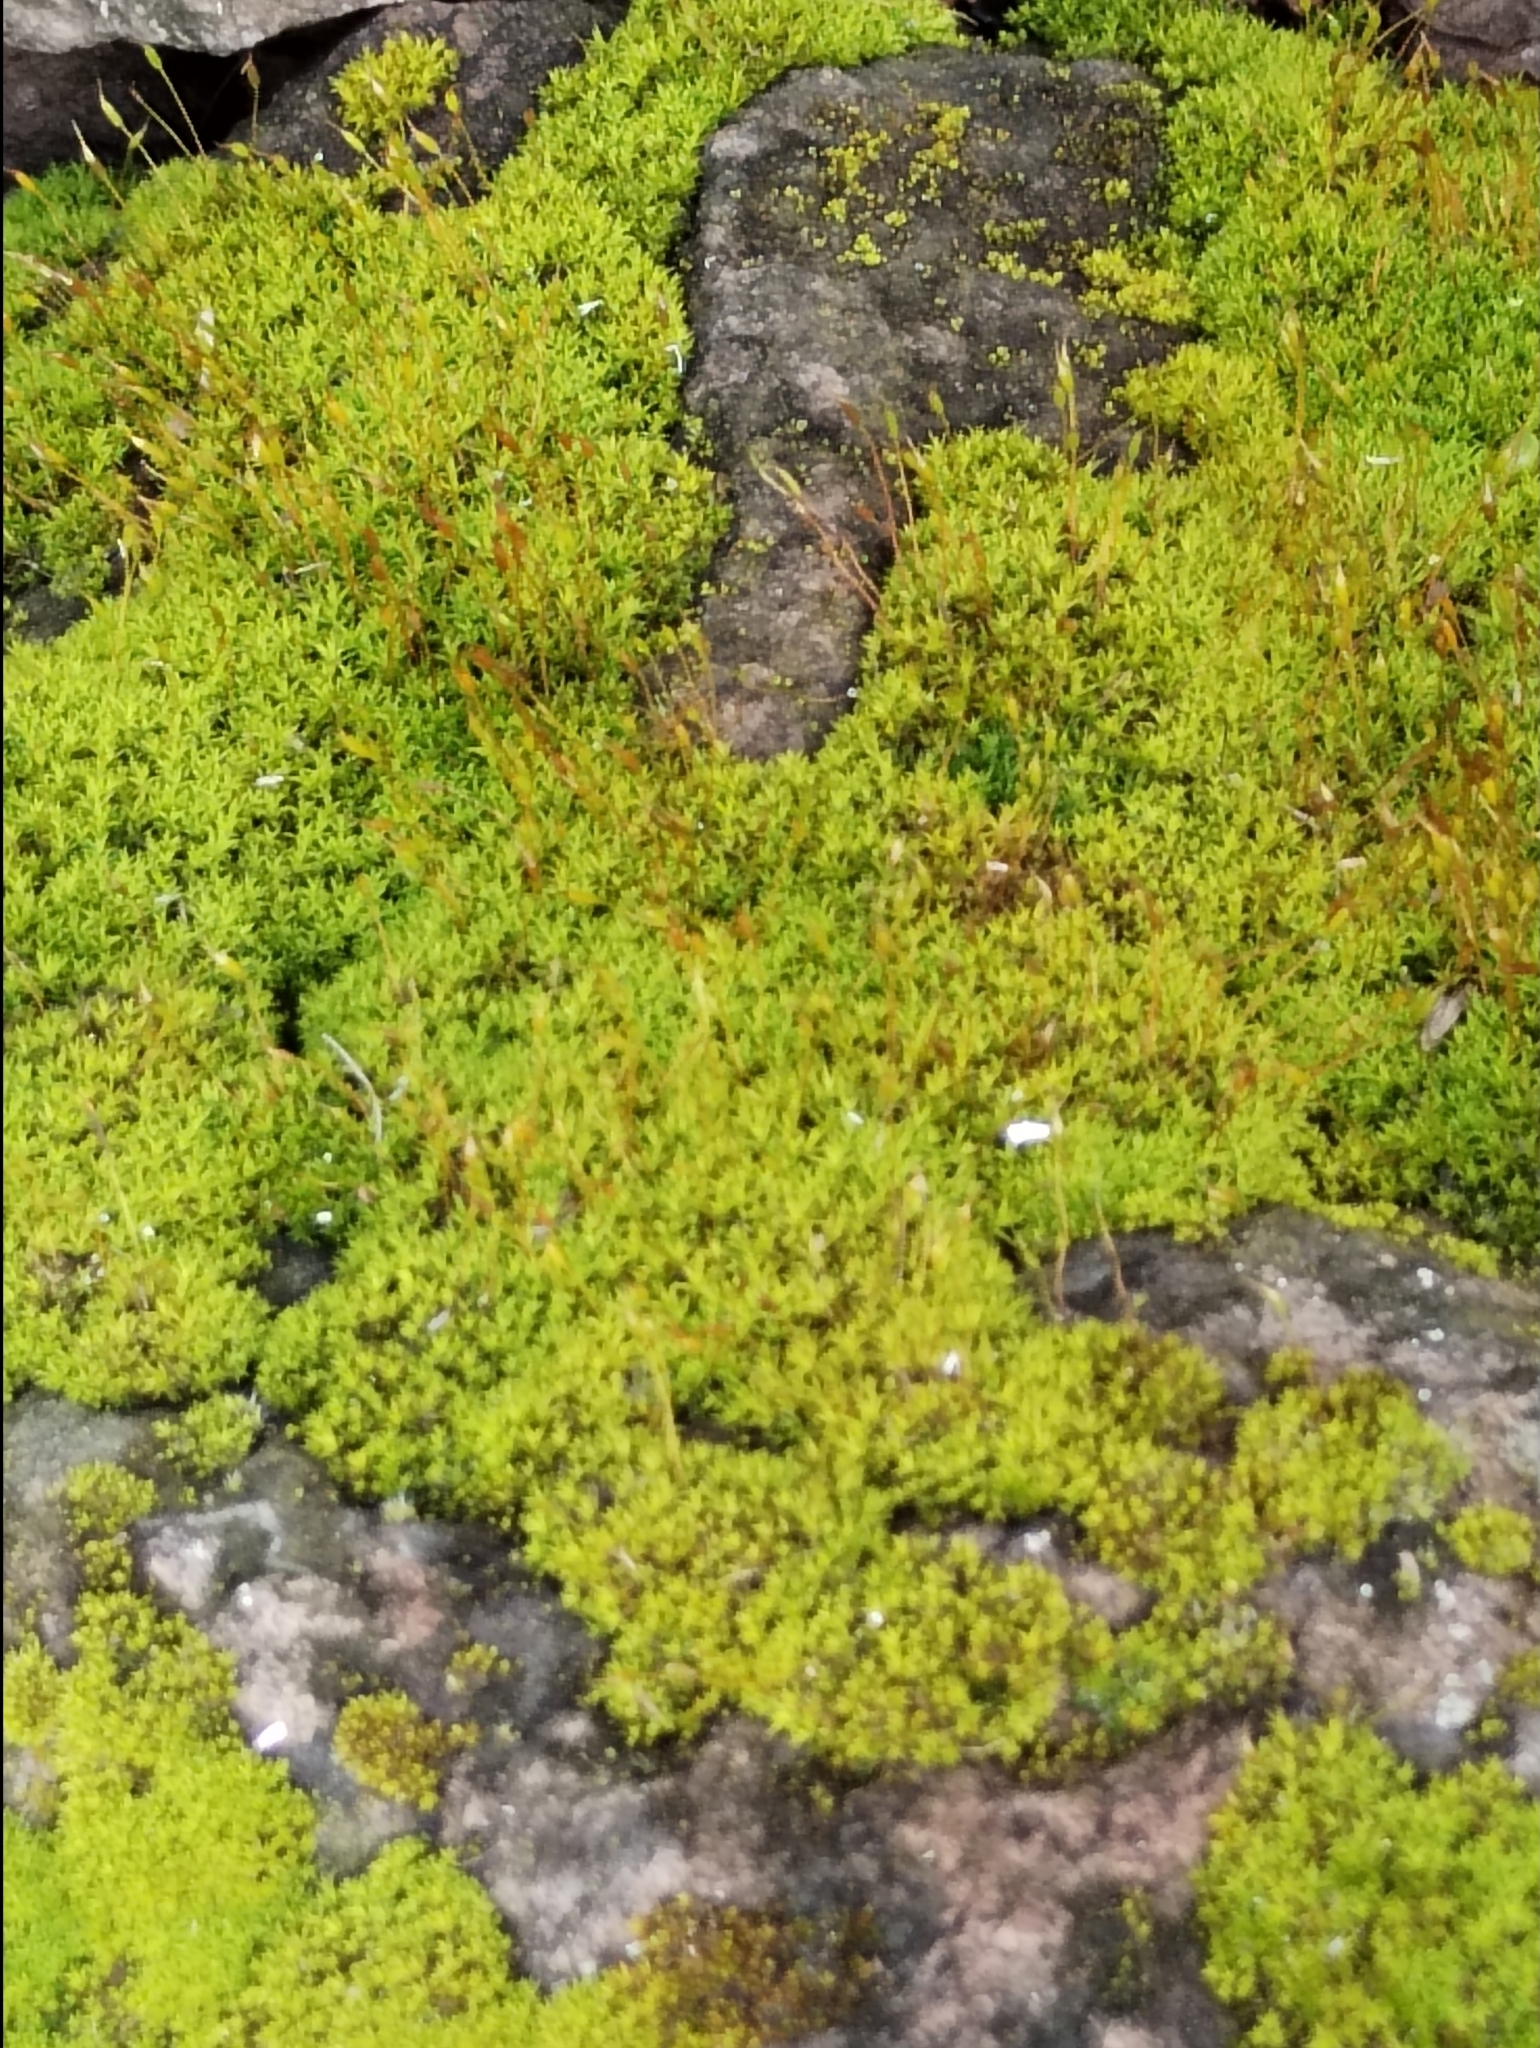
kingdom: Plantae
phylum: Bryophyta
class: Bryopsida
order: Pottiales
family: Pottiaceae
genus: Tortula
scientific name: Tortula muralis
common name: Wall screw-moss
